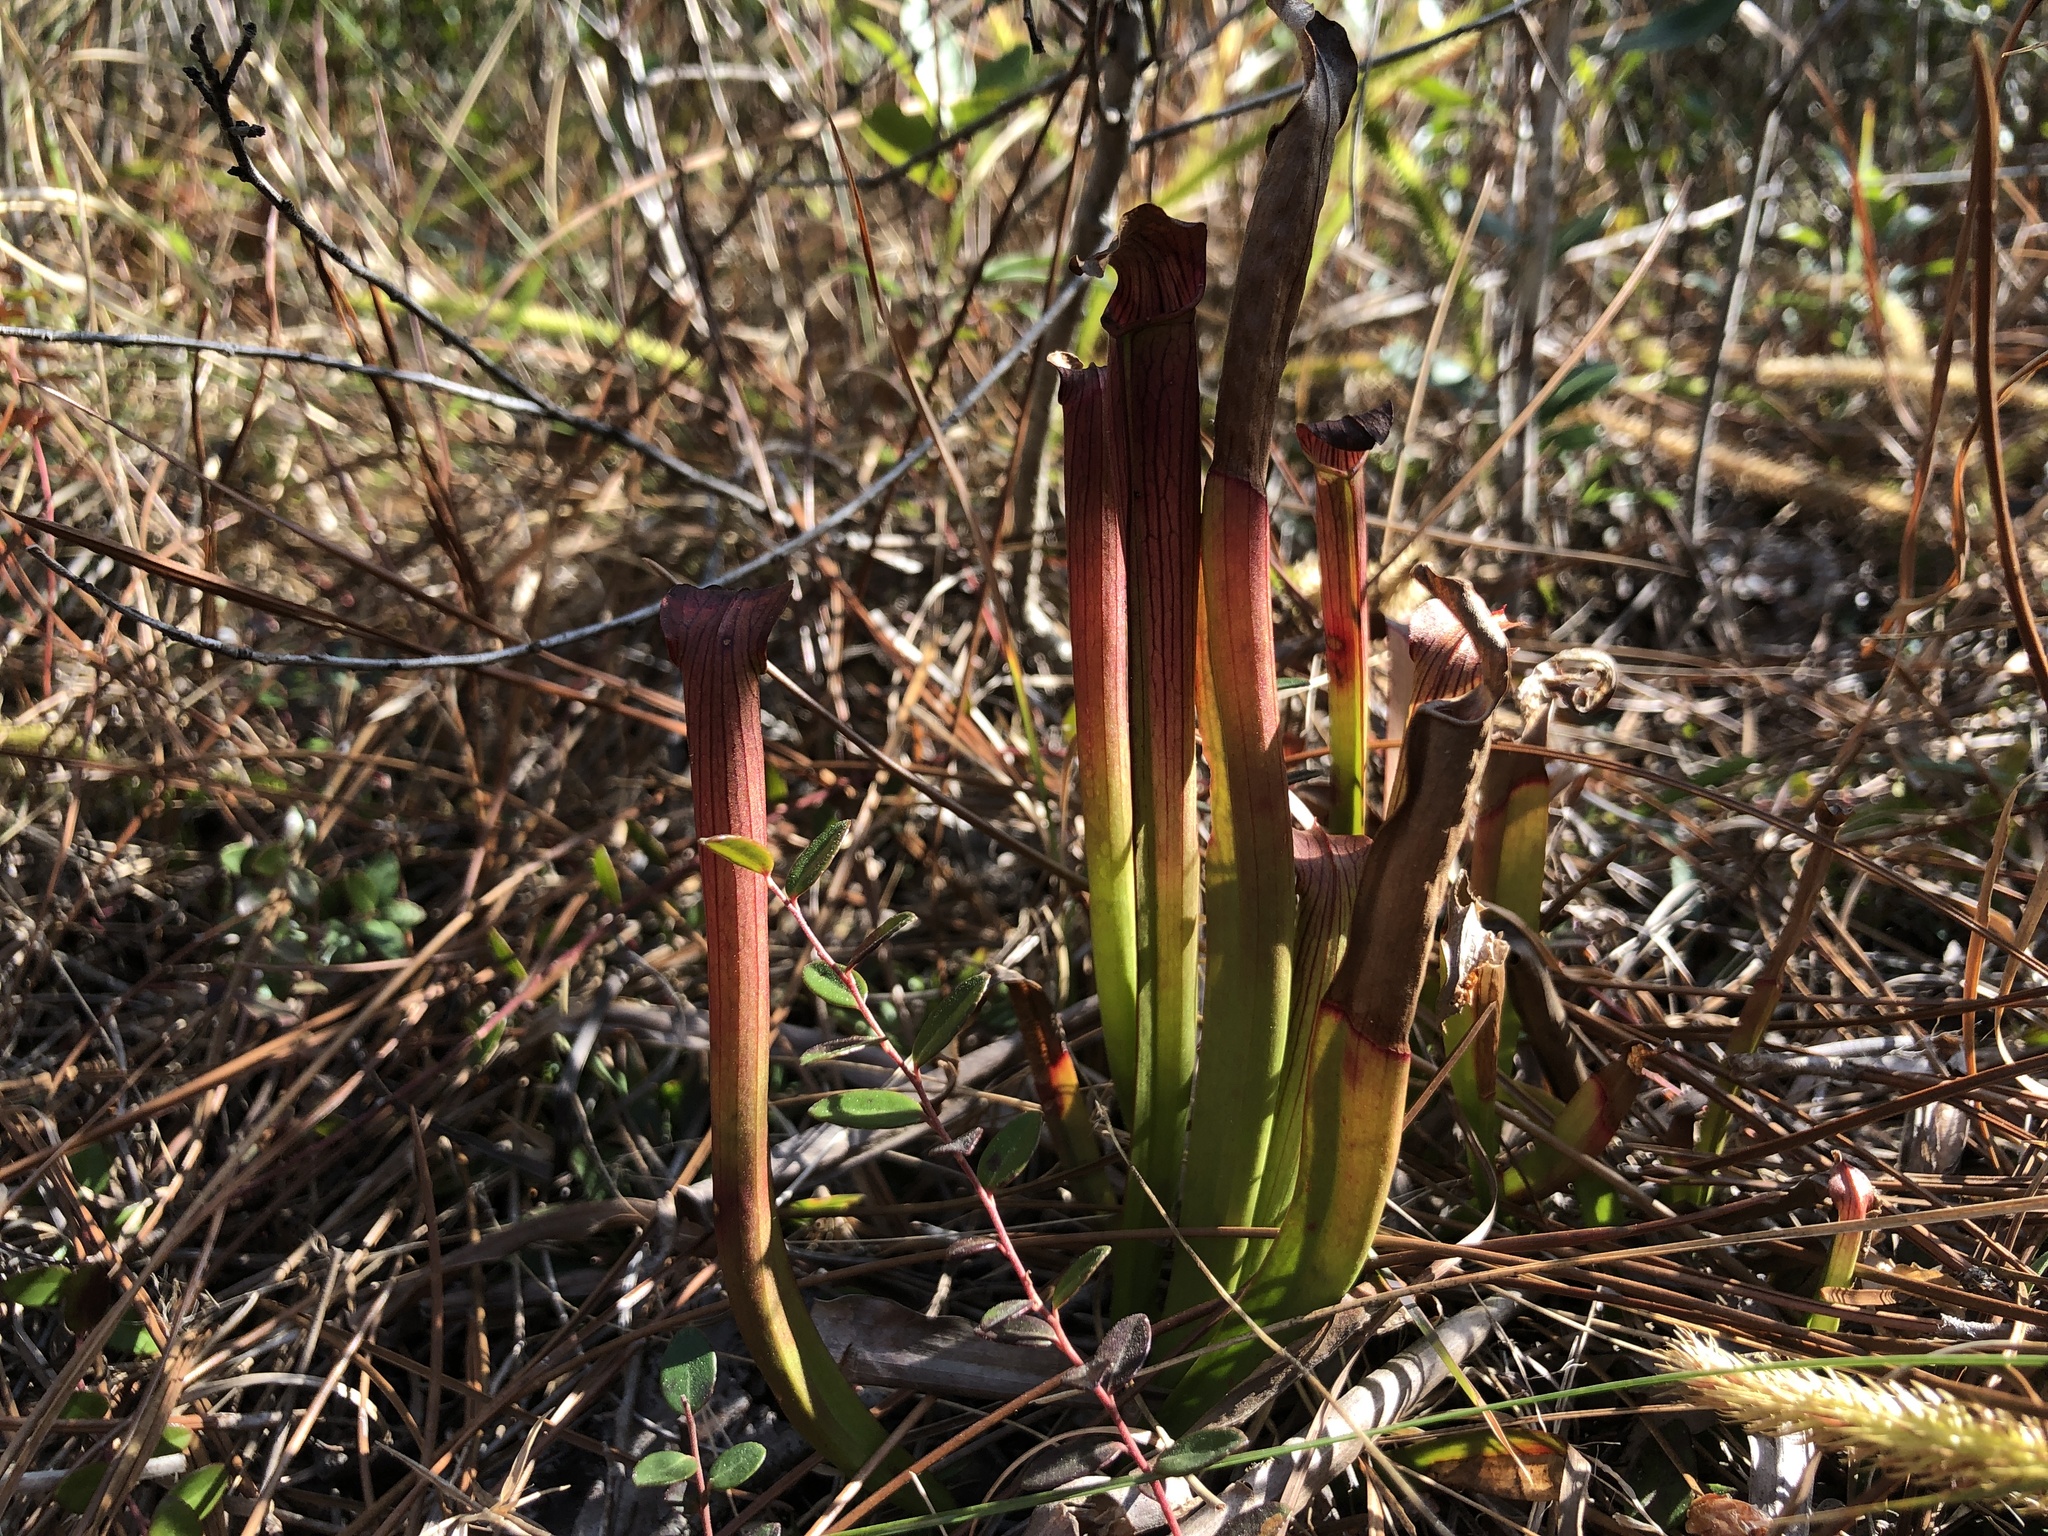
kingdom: Plantae
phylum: Tracheophyta
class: Magnoliopsida
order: Ericales
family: Sarraceniaceae
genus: Sarracenia
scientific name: Sarracenia rubra
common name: Sweet pitcherplant
